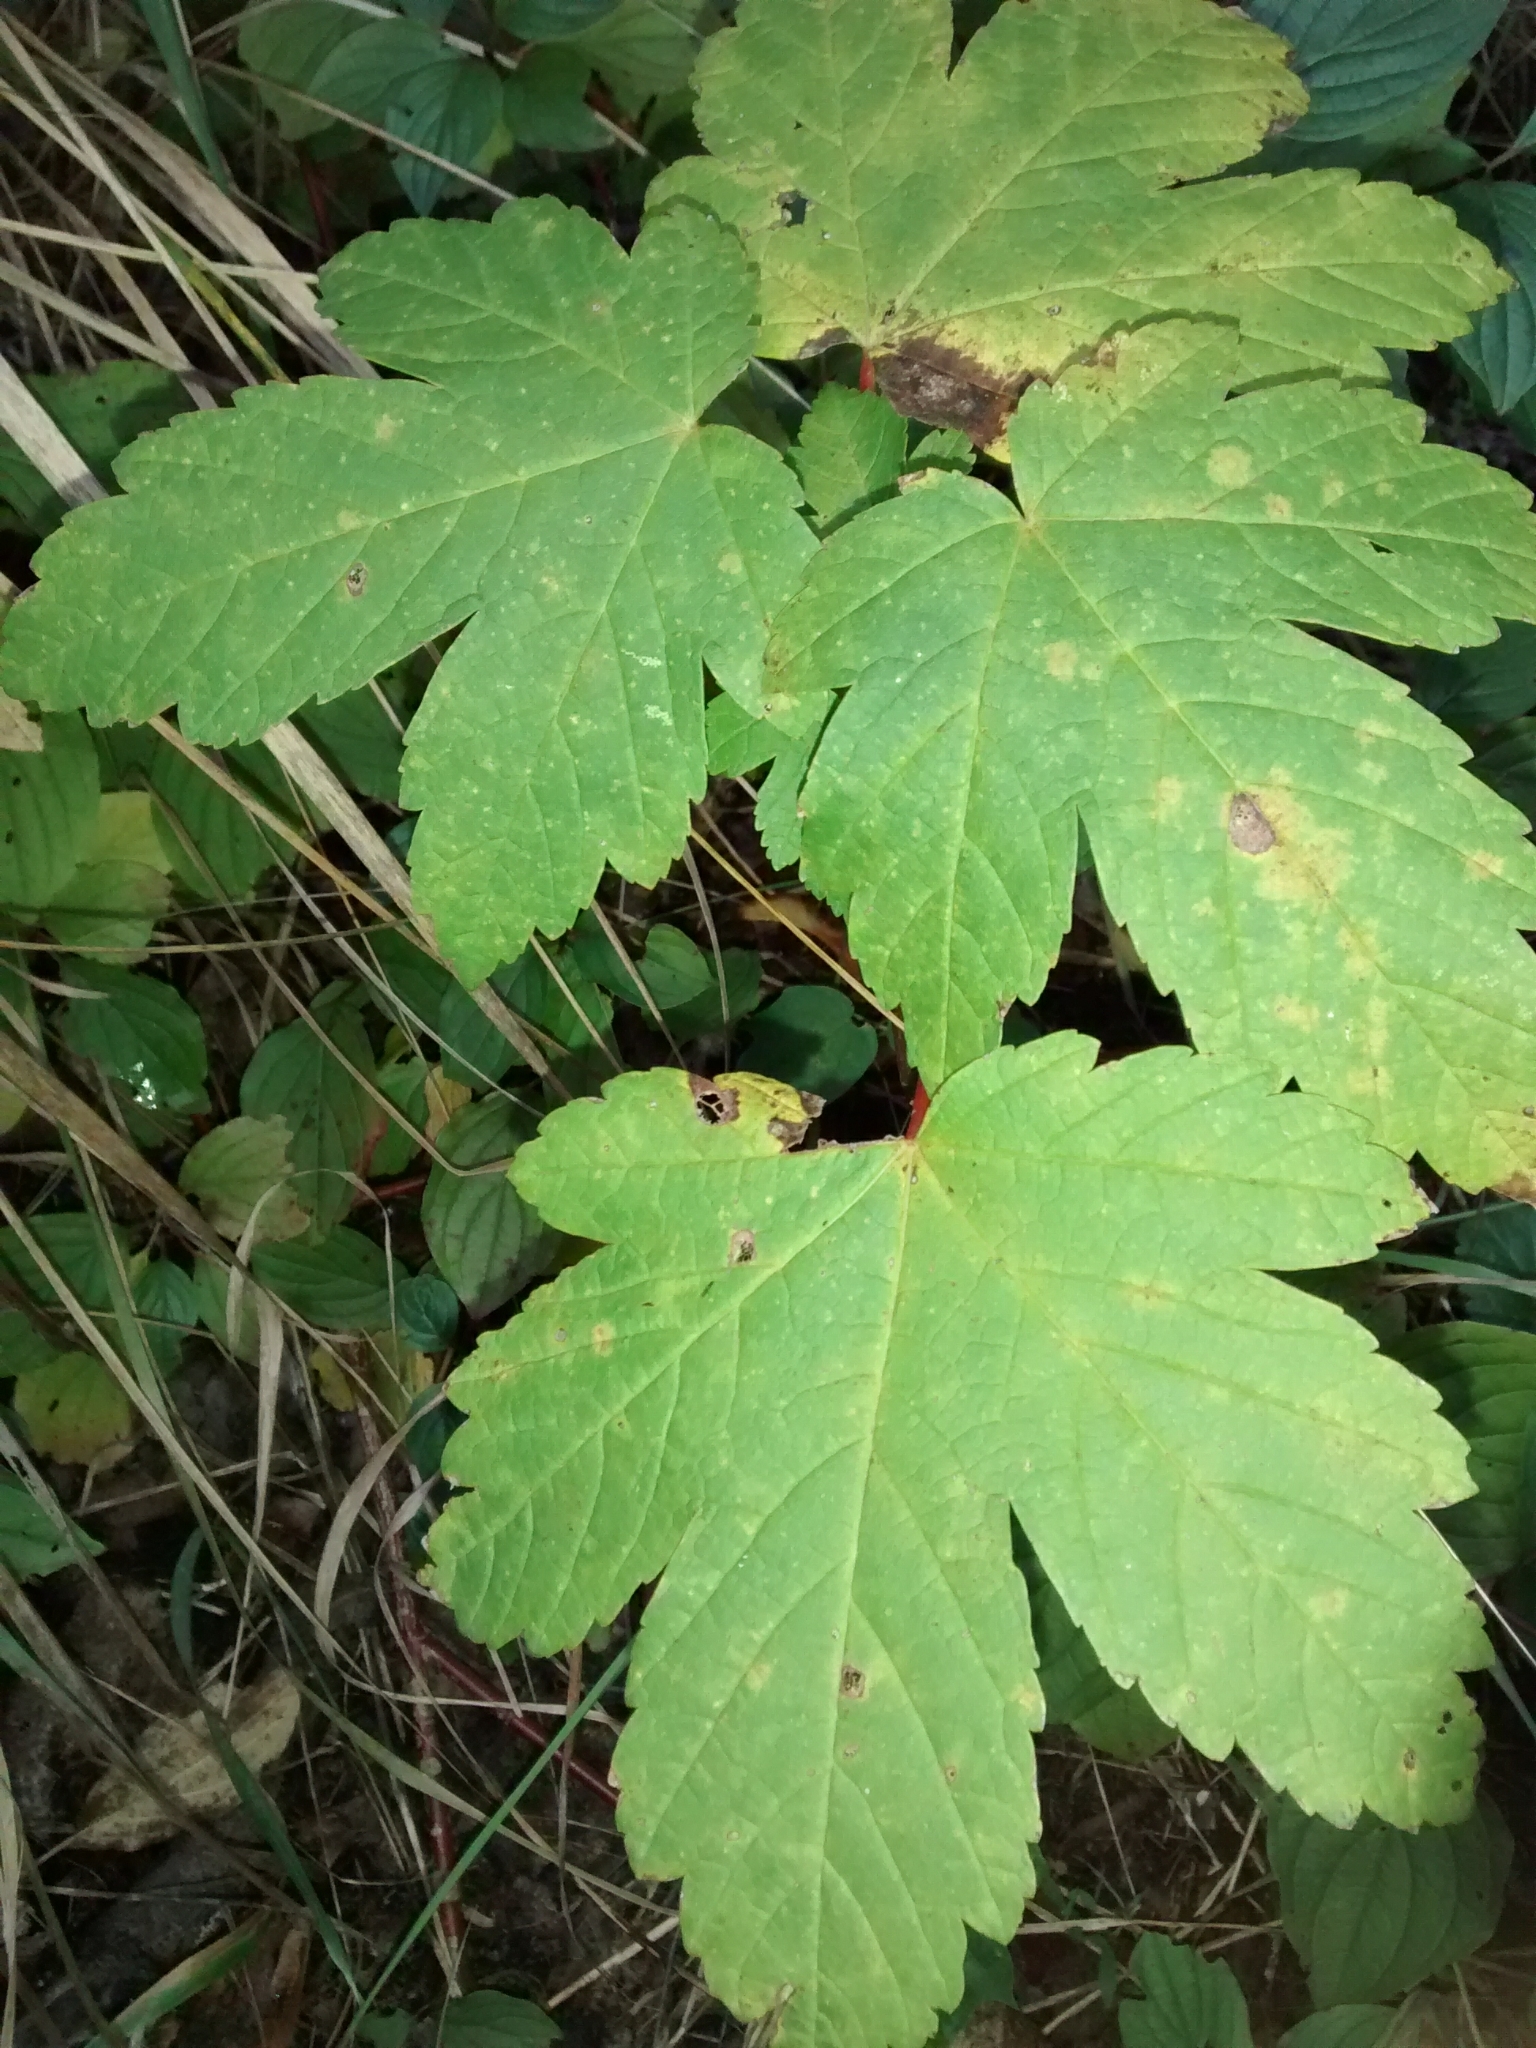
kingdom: Plantae
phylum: Tracheophyta
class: Magnoliopsida
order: Sapindales
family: Sapindaceae
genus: Acer
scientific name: Acer pseudoplatanus
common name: Sycamore
